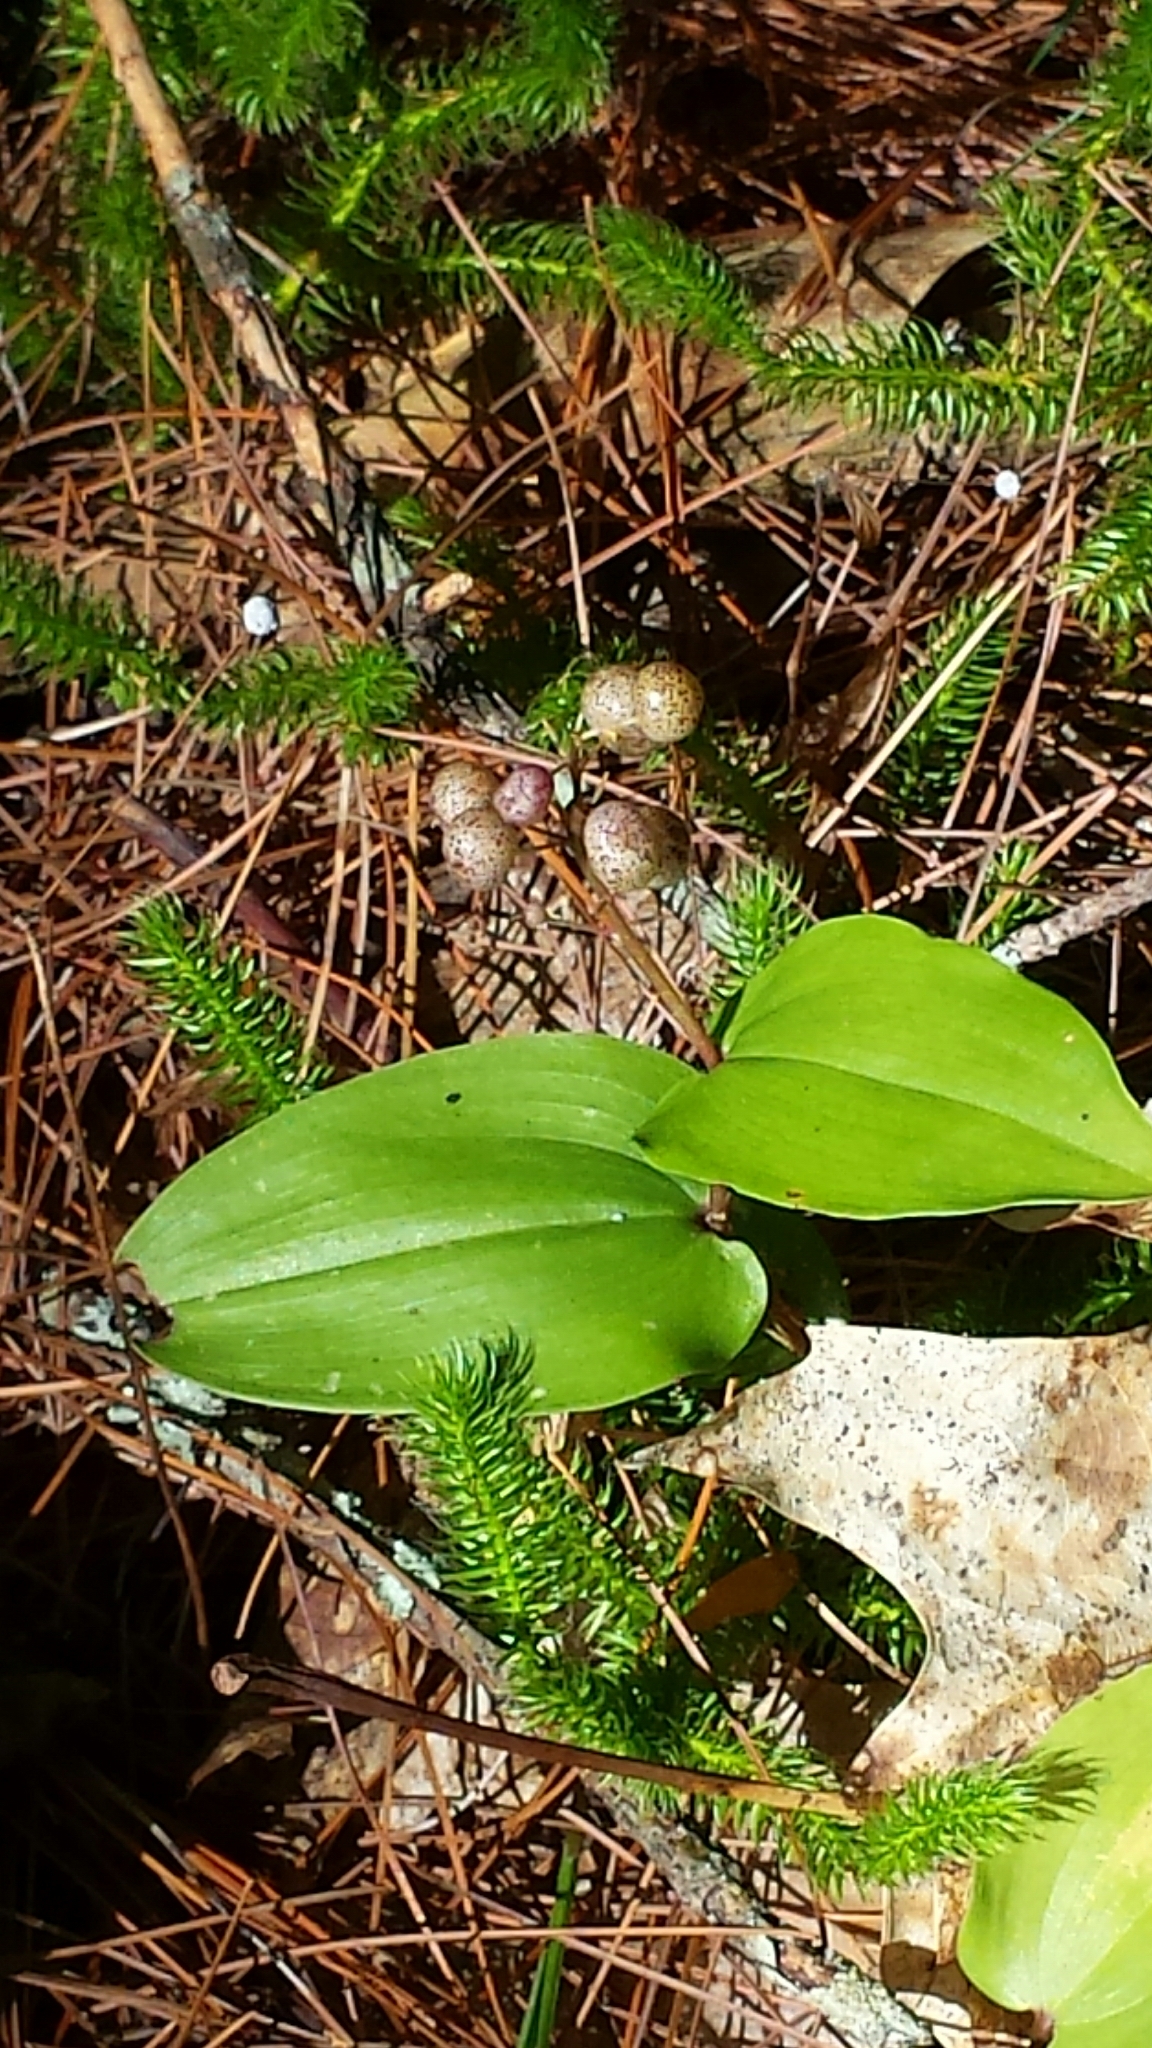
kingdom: Plantae
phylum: Tracheophyta
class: Liliopsida
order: Asparagales
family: Asparagaceae
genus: Maianthemum
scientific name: Maianthemum canadense
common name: False lily-of-the-valley
